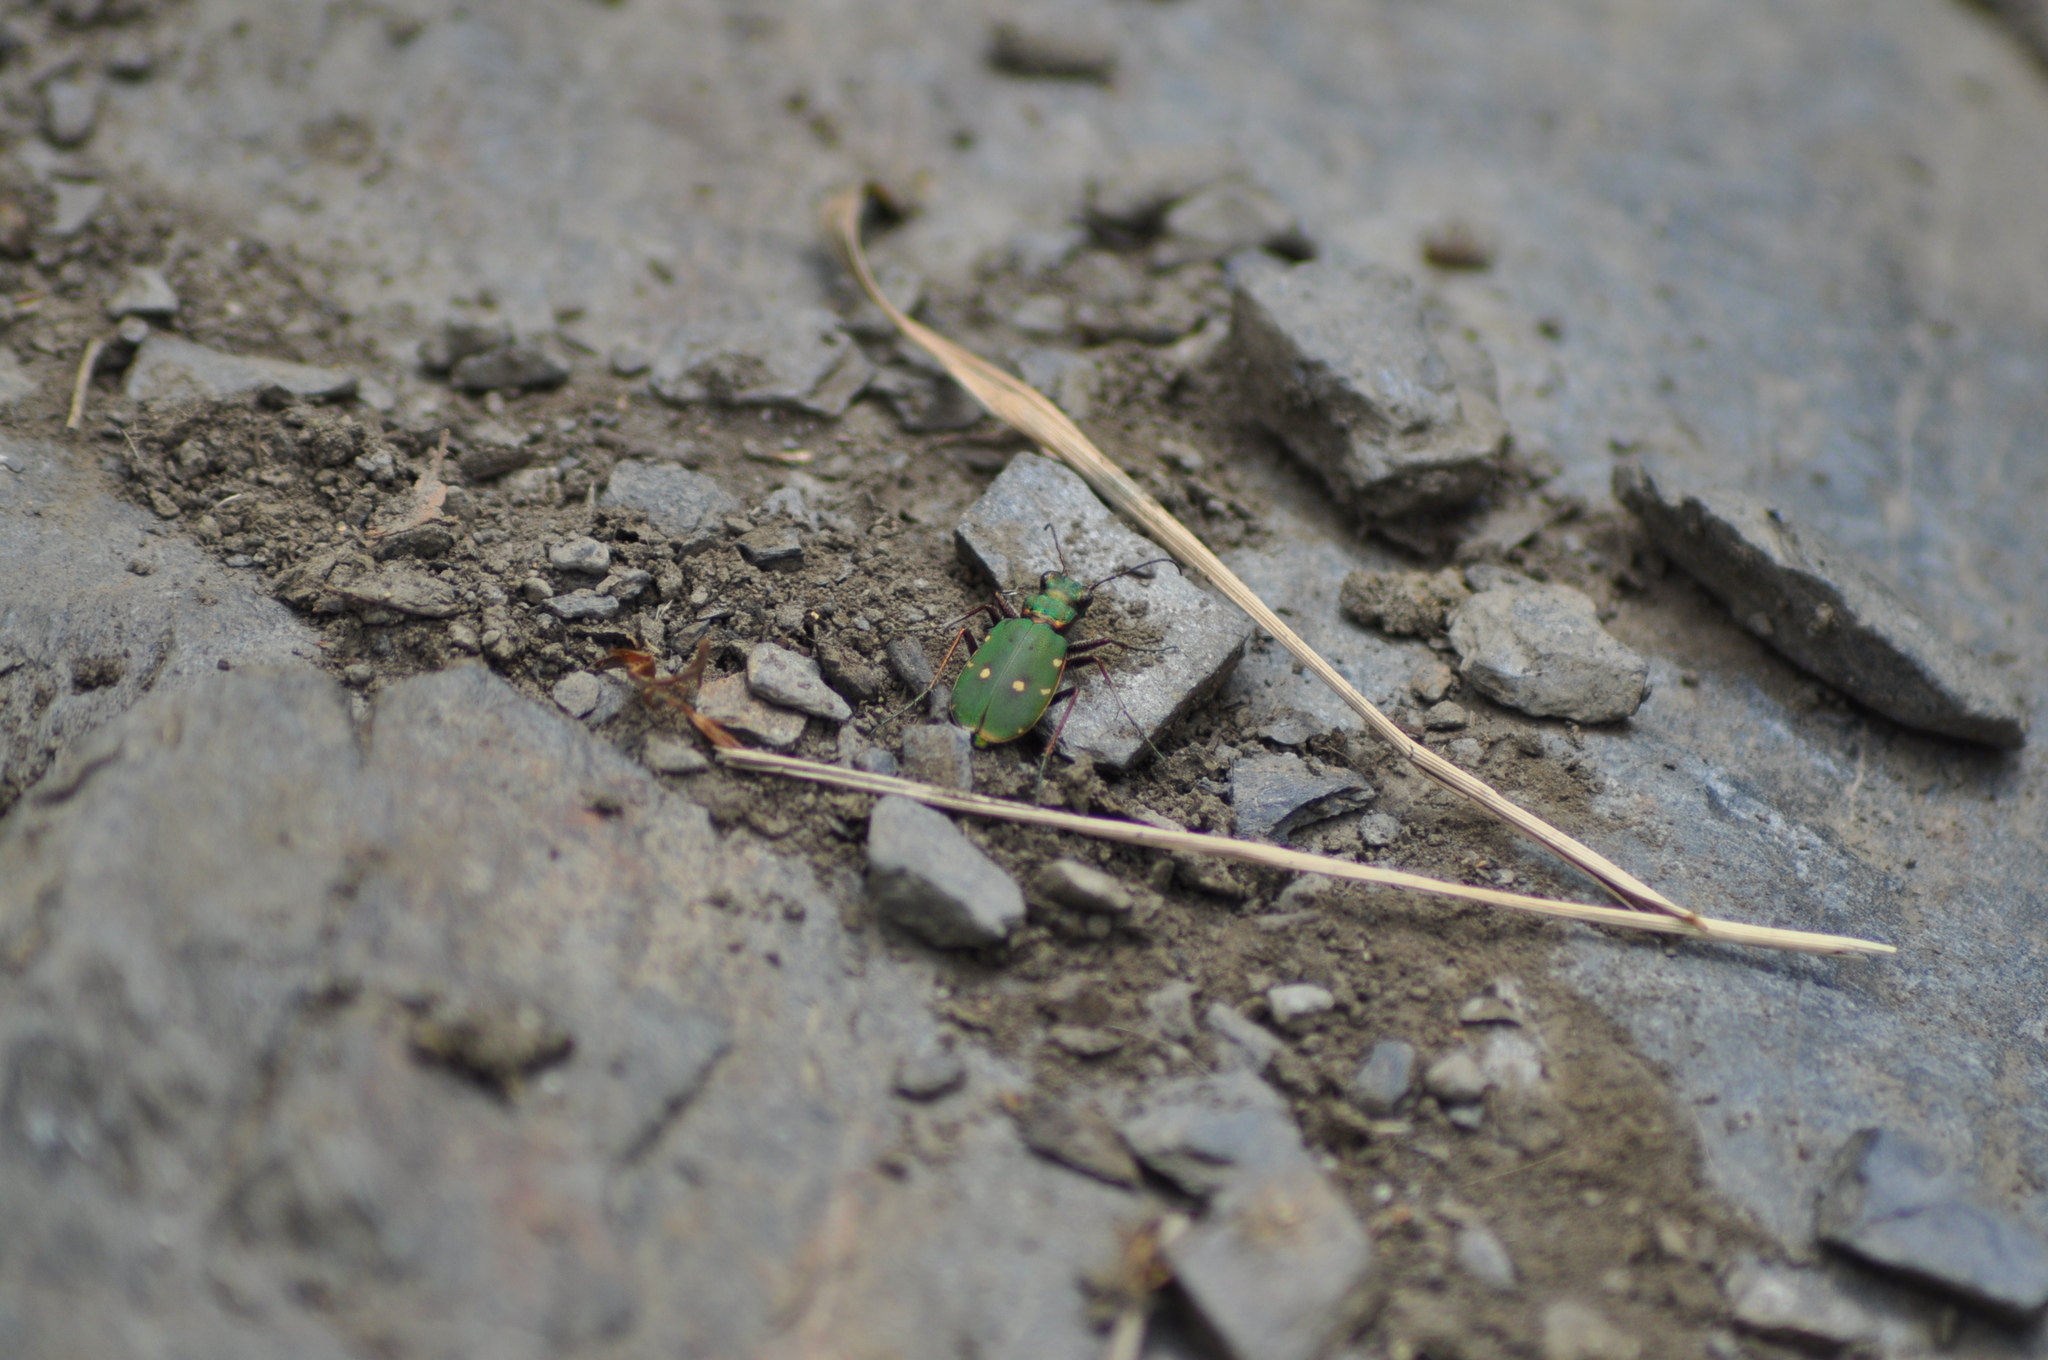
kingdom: Animalia
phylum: Arthropoda
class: Insecta
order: Coleoptera
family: Carabidae
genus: Cicindela
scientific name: Cicindela campestris
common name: Common tiger beetle
